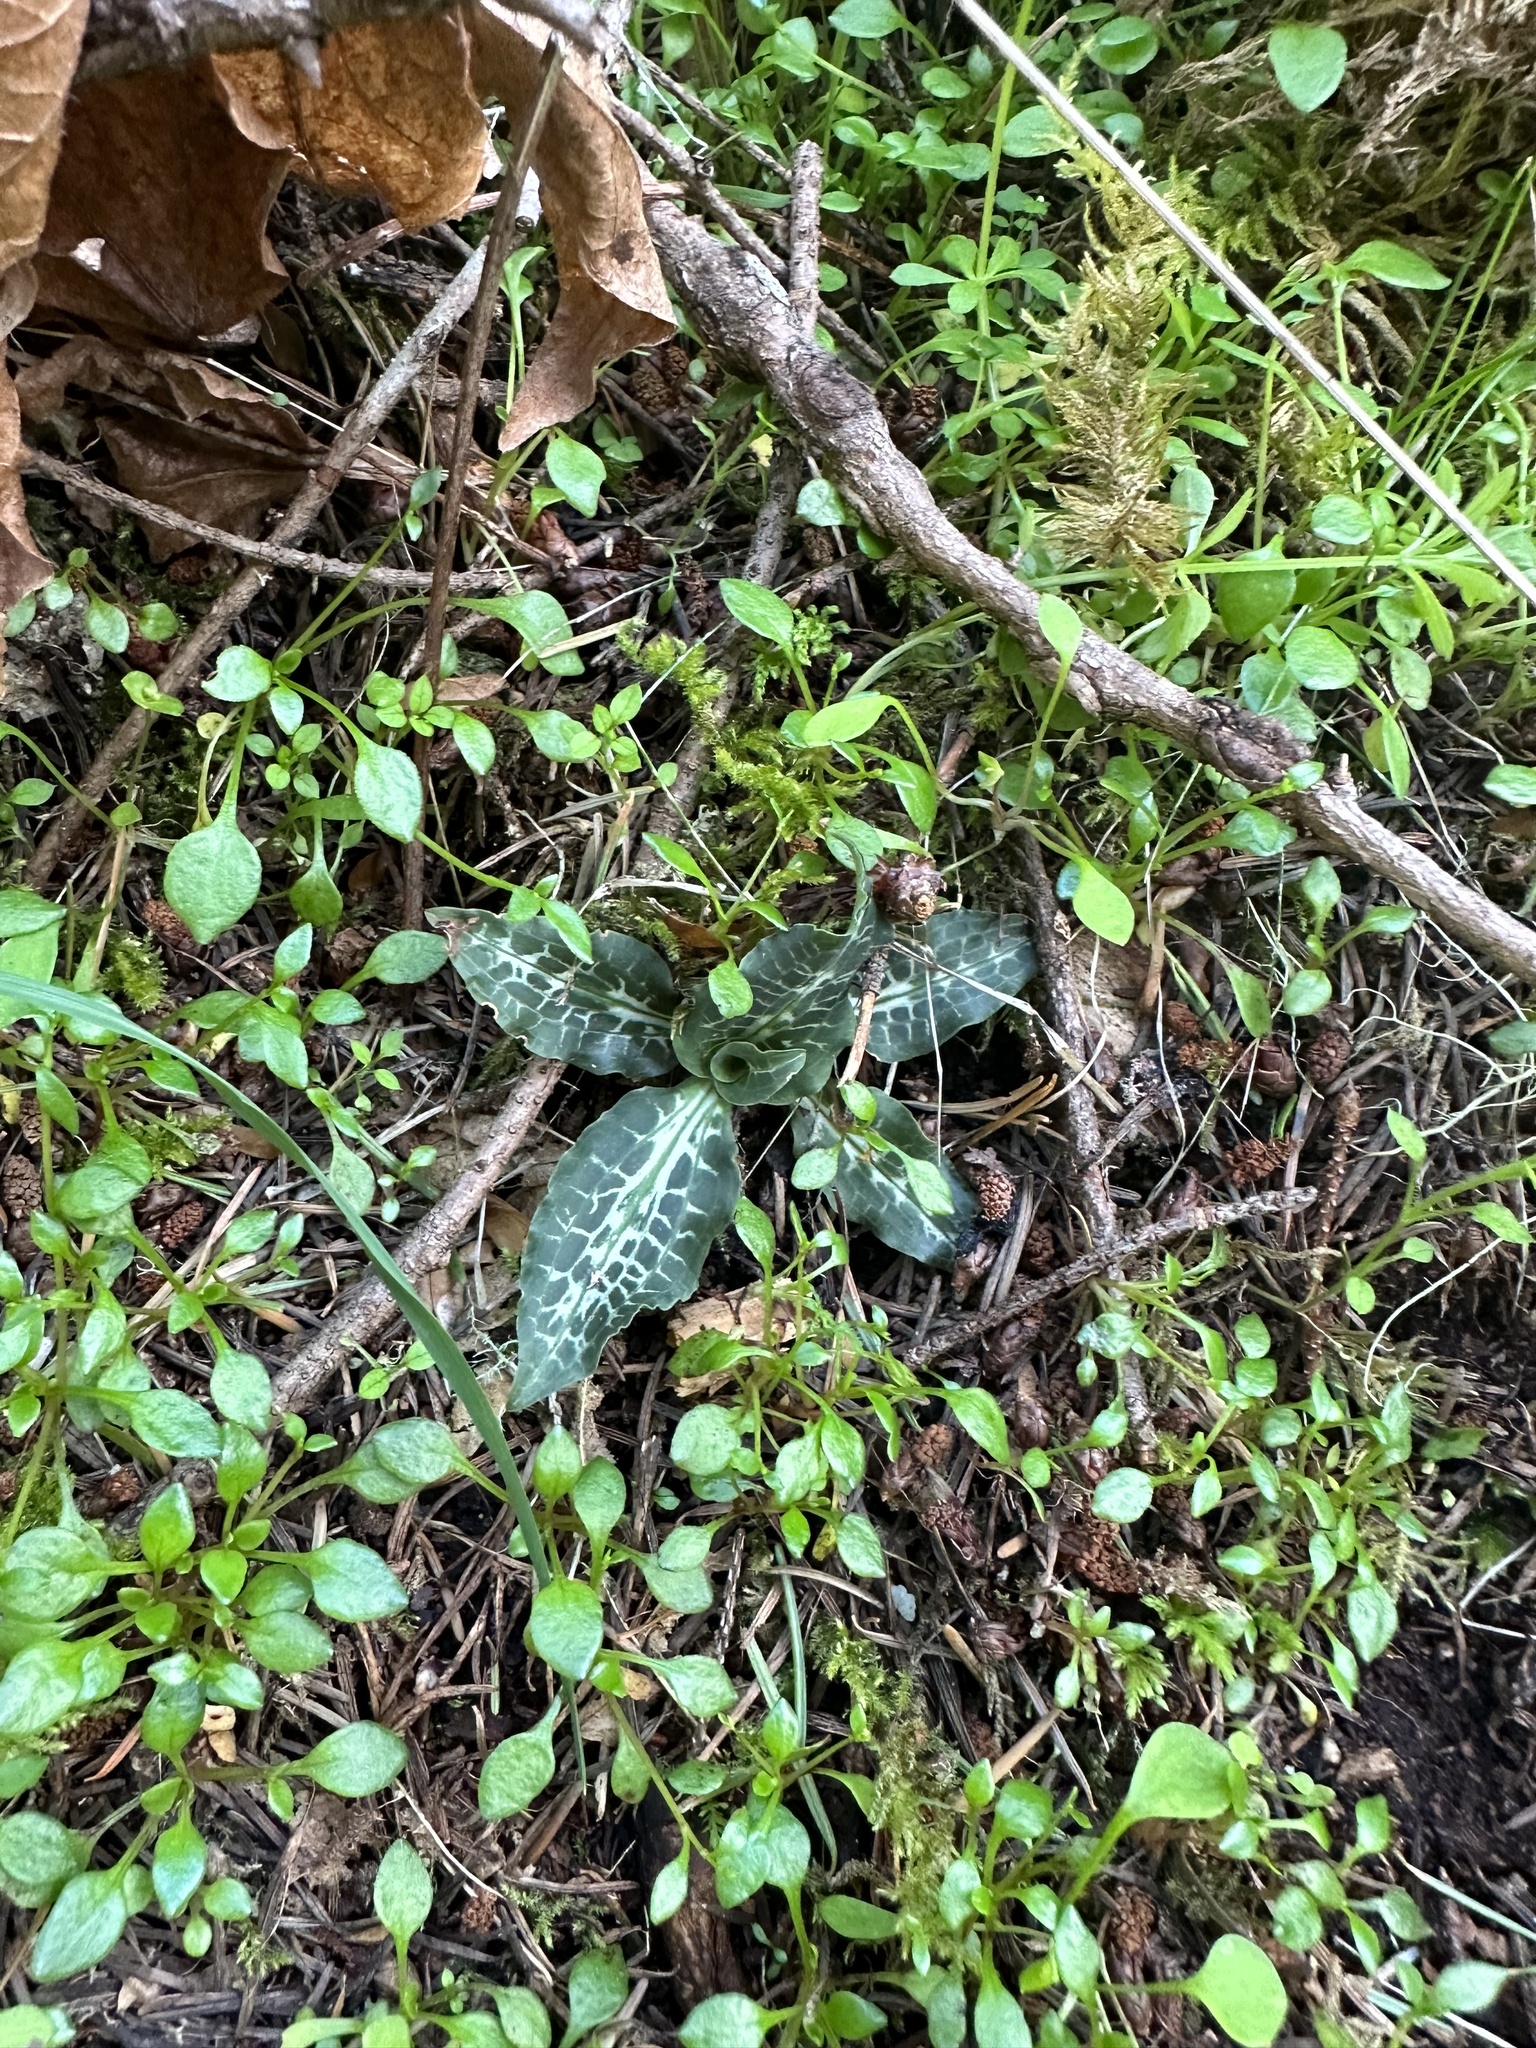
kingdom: Plantae
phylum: Tracheophyta
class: Liliopsida
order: Asparagales
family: Orchidaceae
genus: Goodyera
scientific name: Goodyera oblongifolia
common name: Giant rattlesnake-plantain
